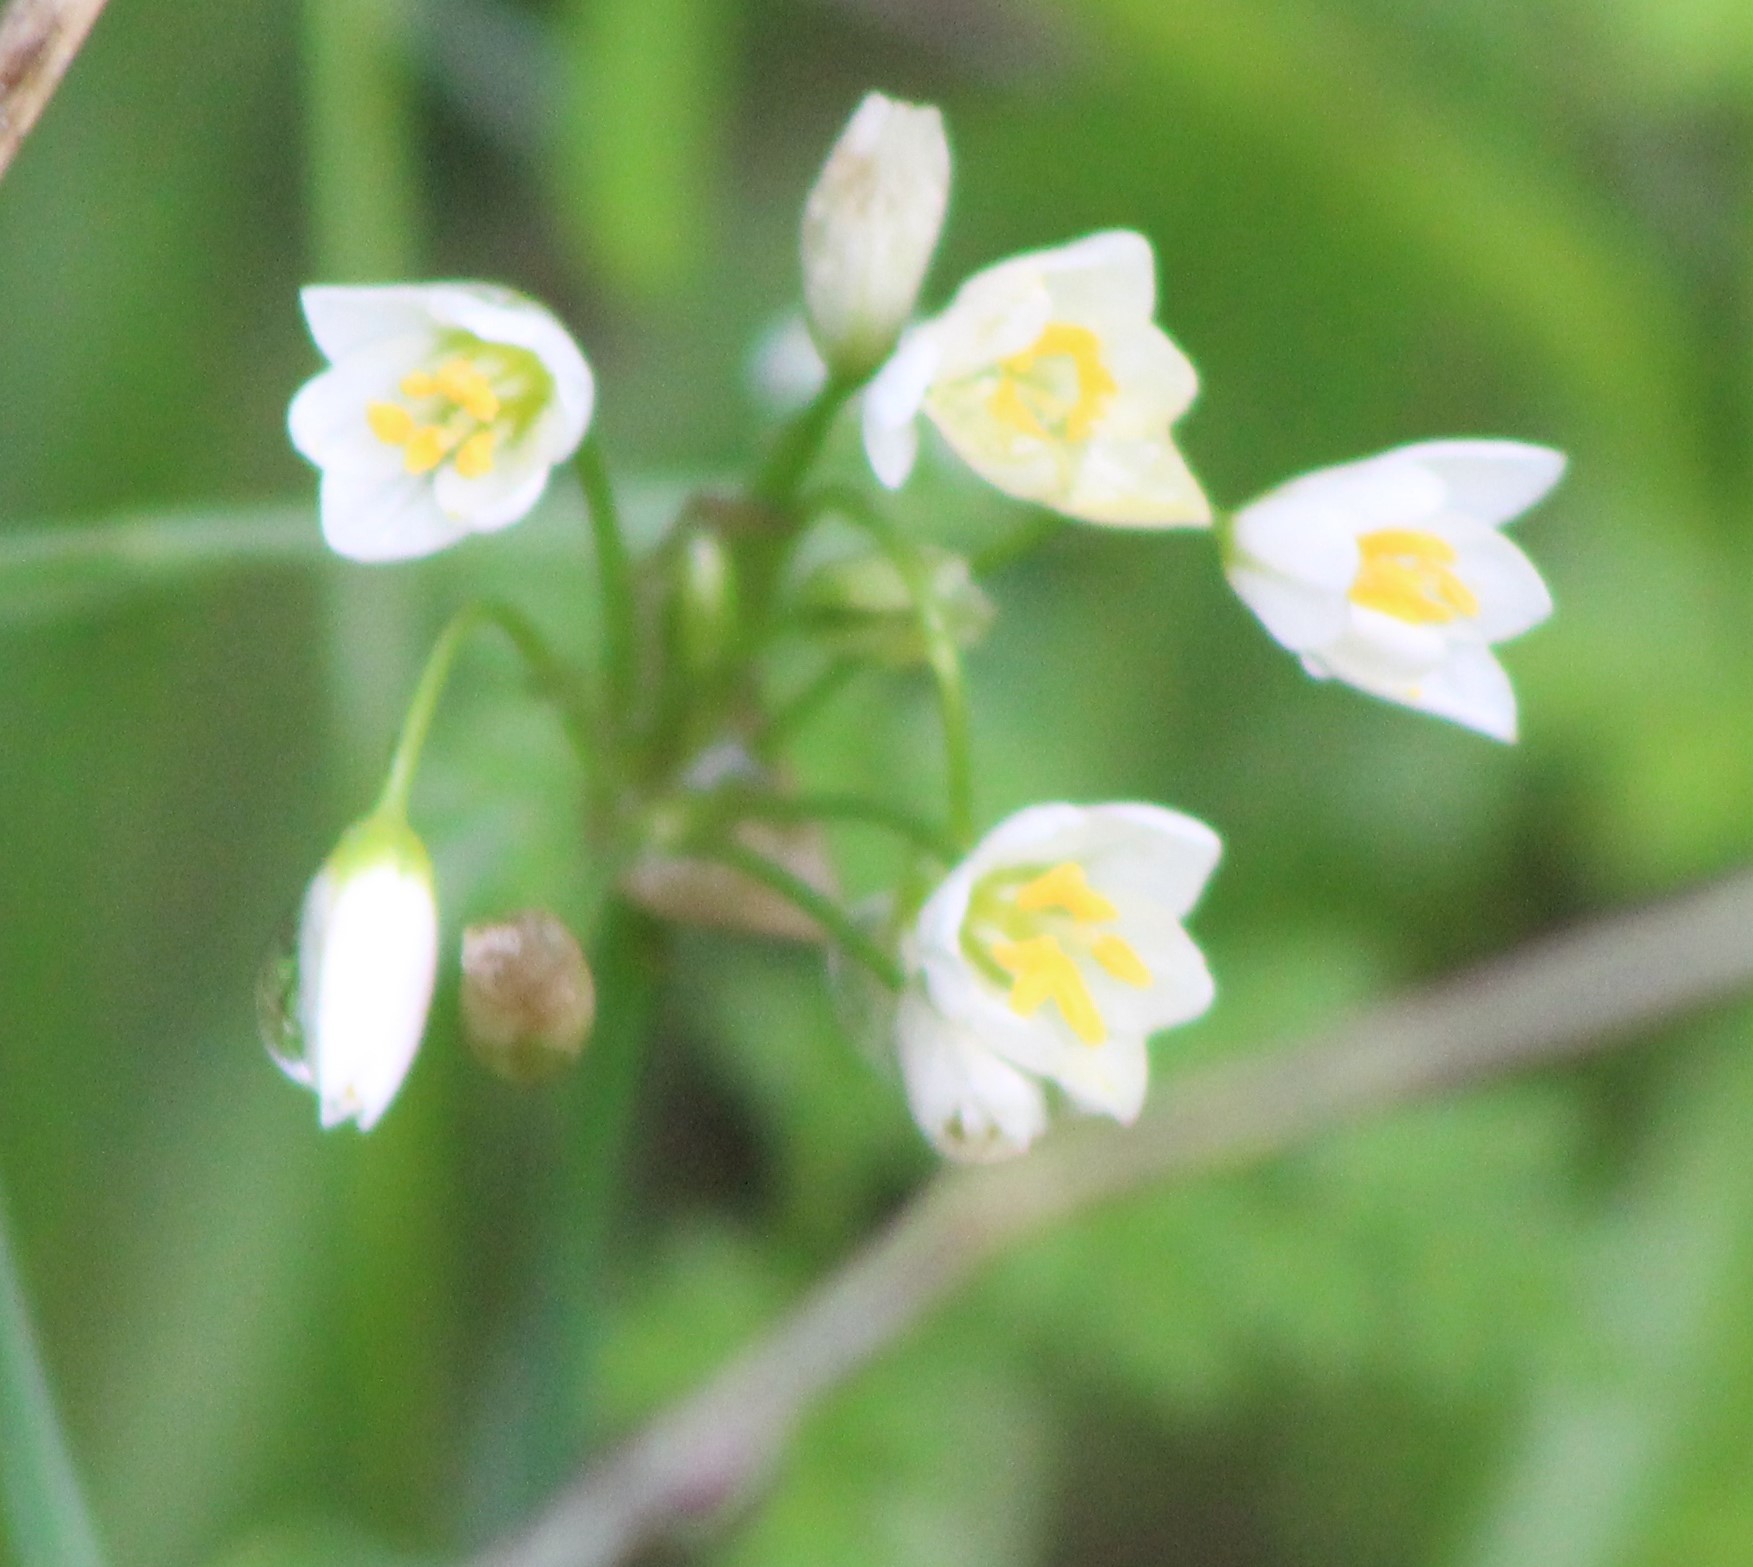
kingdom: Plantae
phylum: Tracheophyta
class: Liliopsida
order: Asparagales
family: Amaryllidaceae
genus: Nothoscordum
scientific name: Nothoscordum bivalve
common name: Crow-poison
